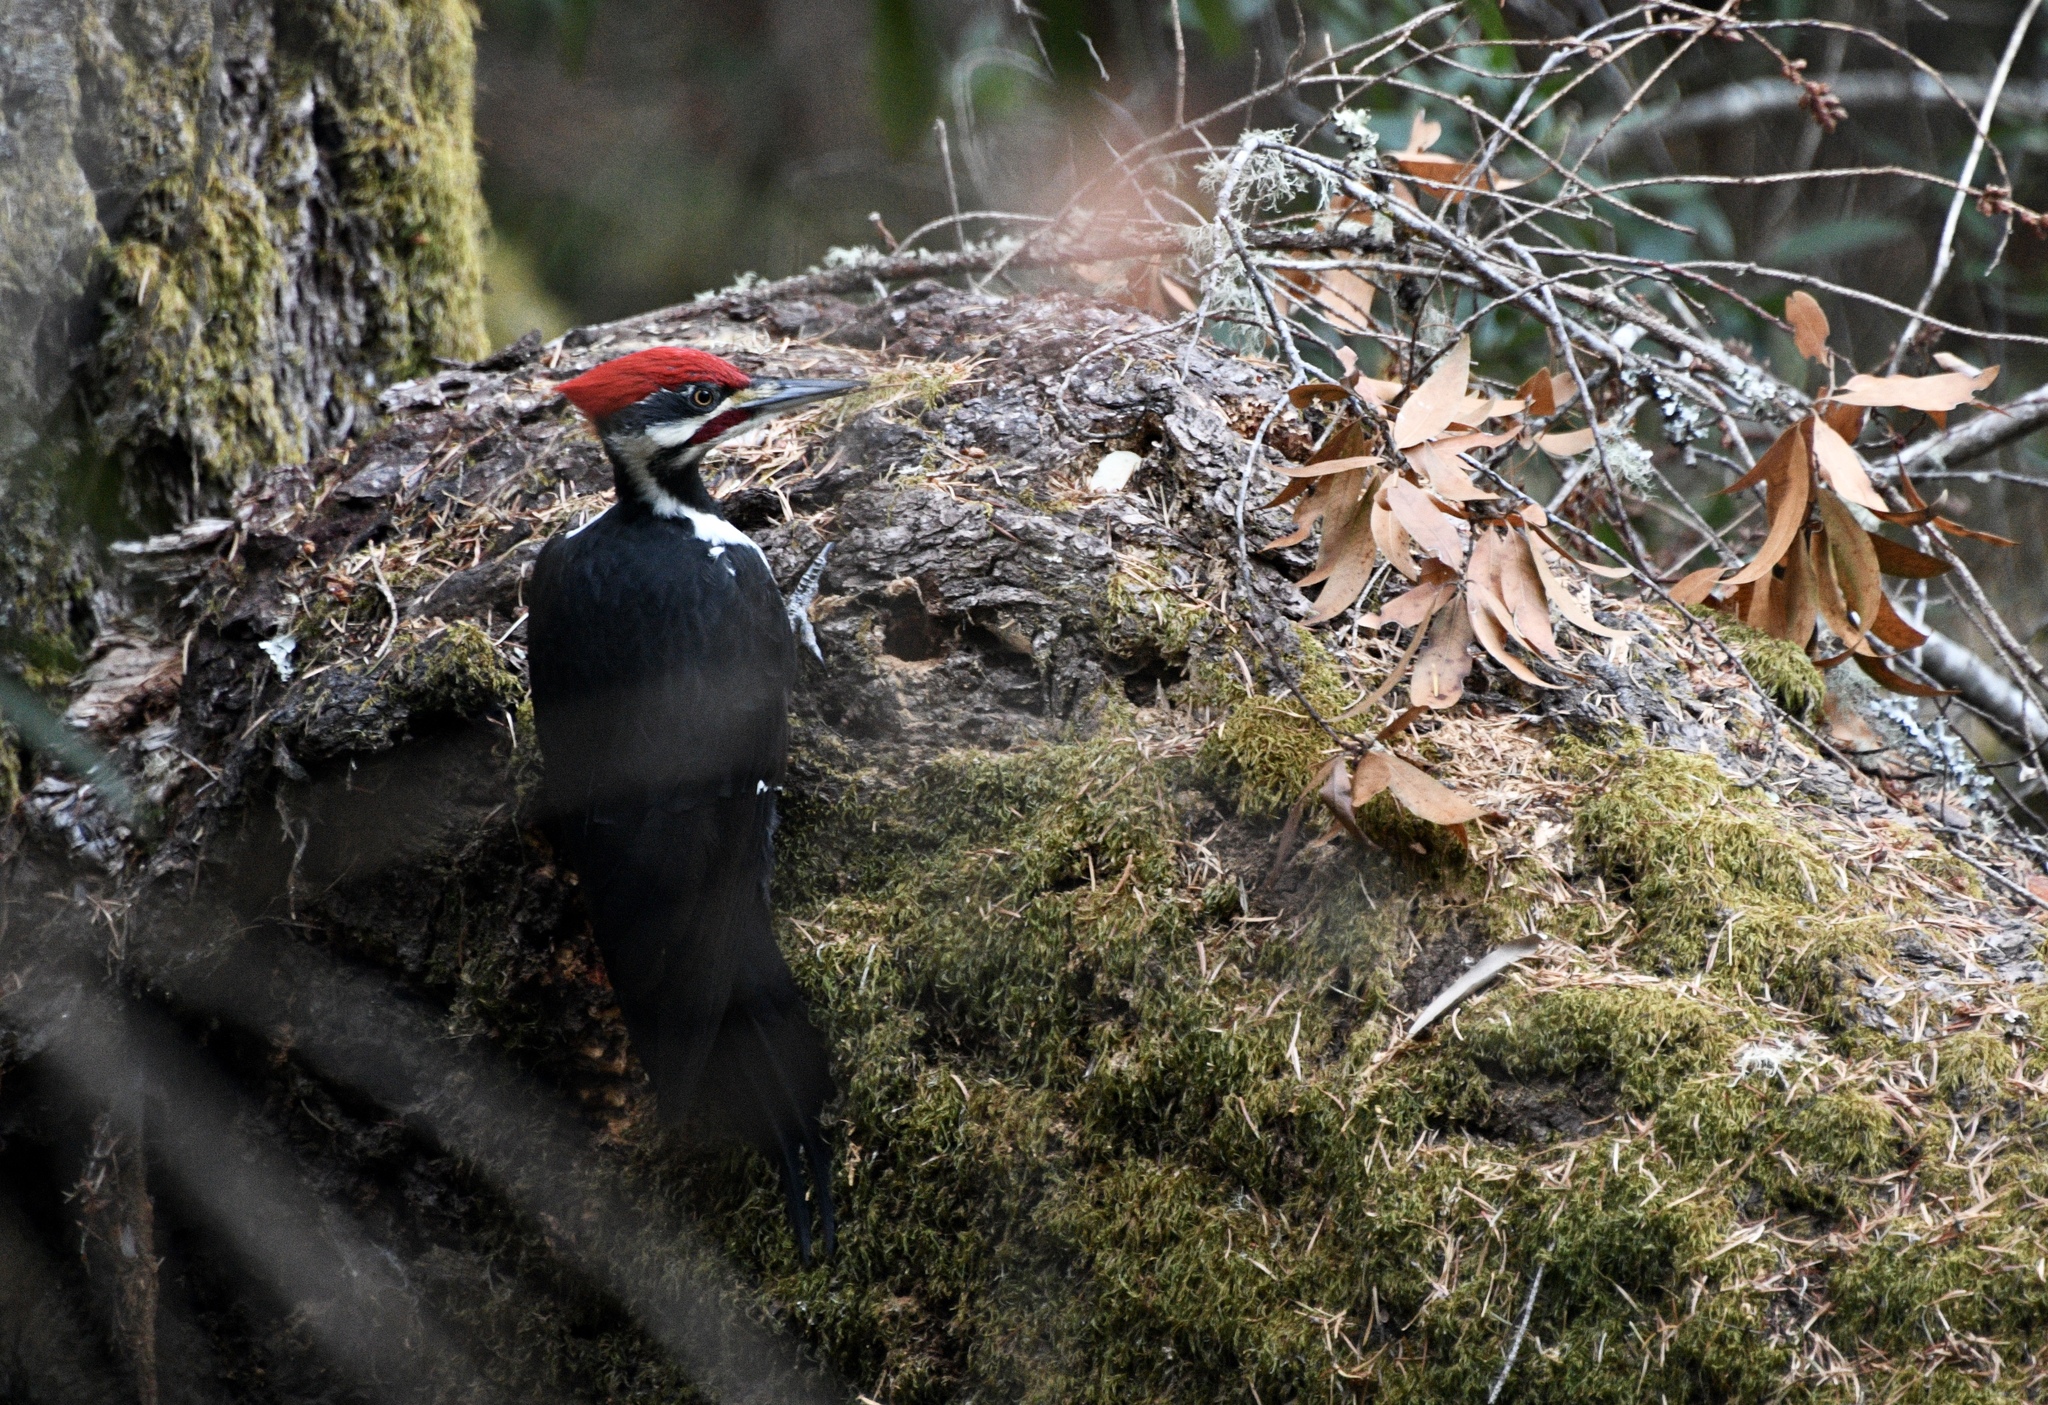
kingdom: Animalia
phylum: Chordata
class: Aves
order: Piciformes
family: Picidae
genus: Dryocopus
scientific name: Dryocopus pileatus
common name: Pileated woodpecker
